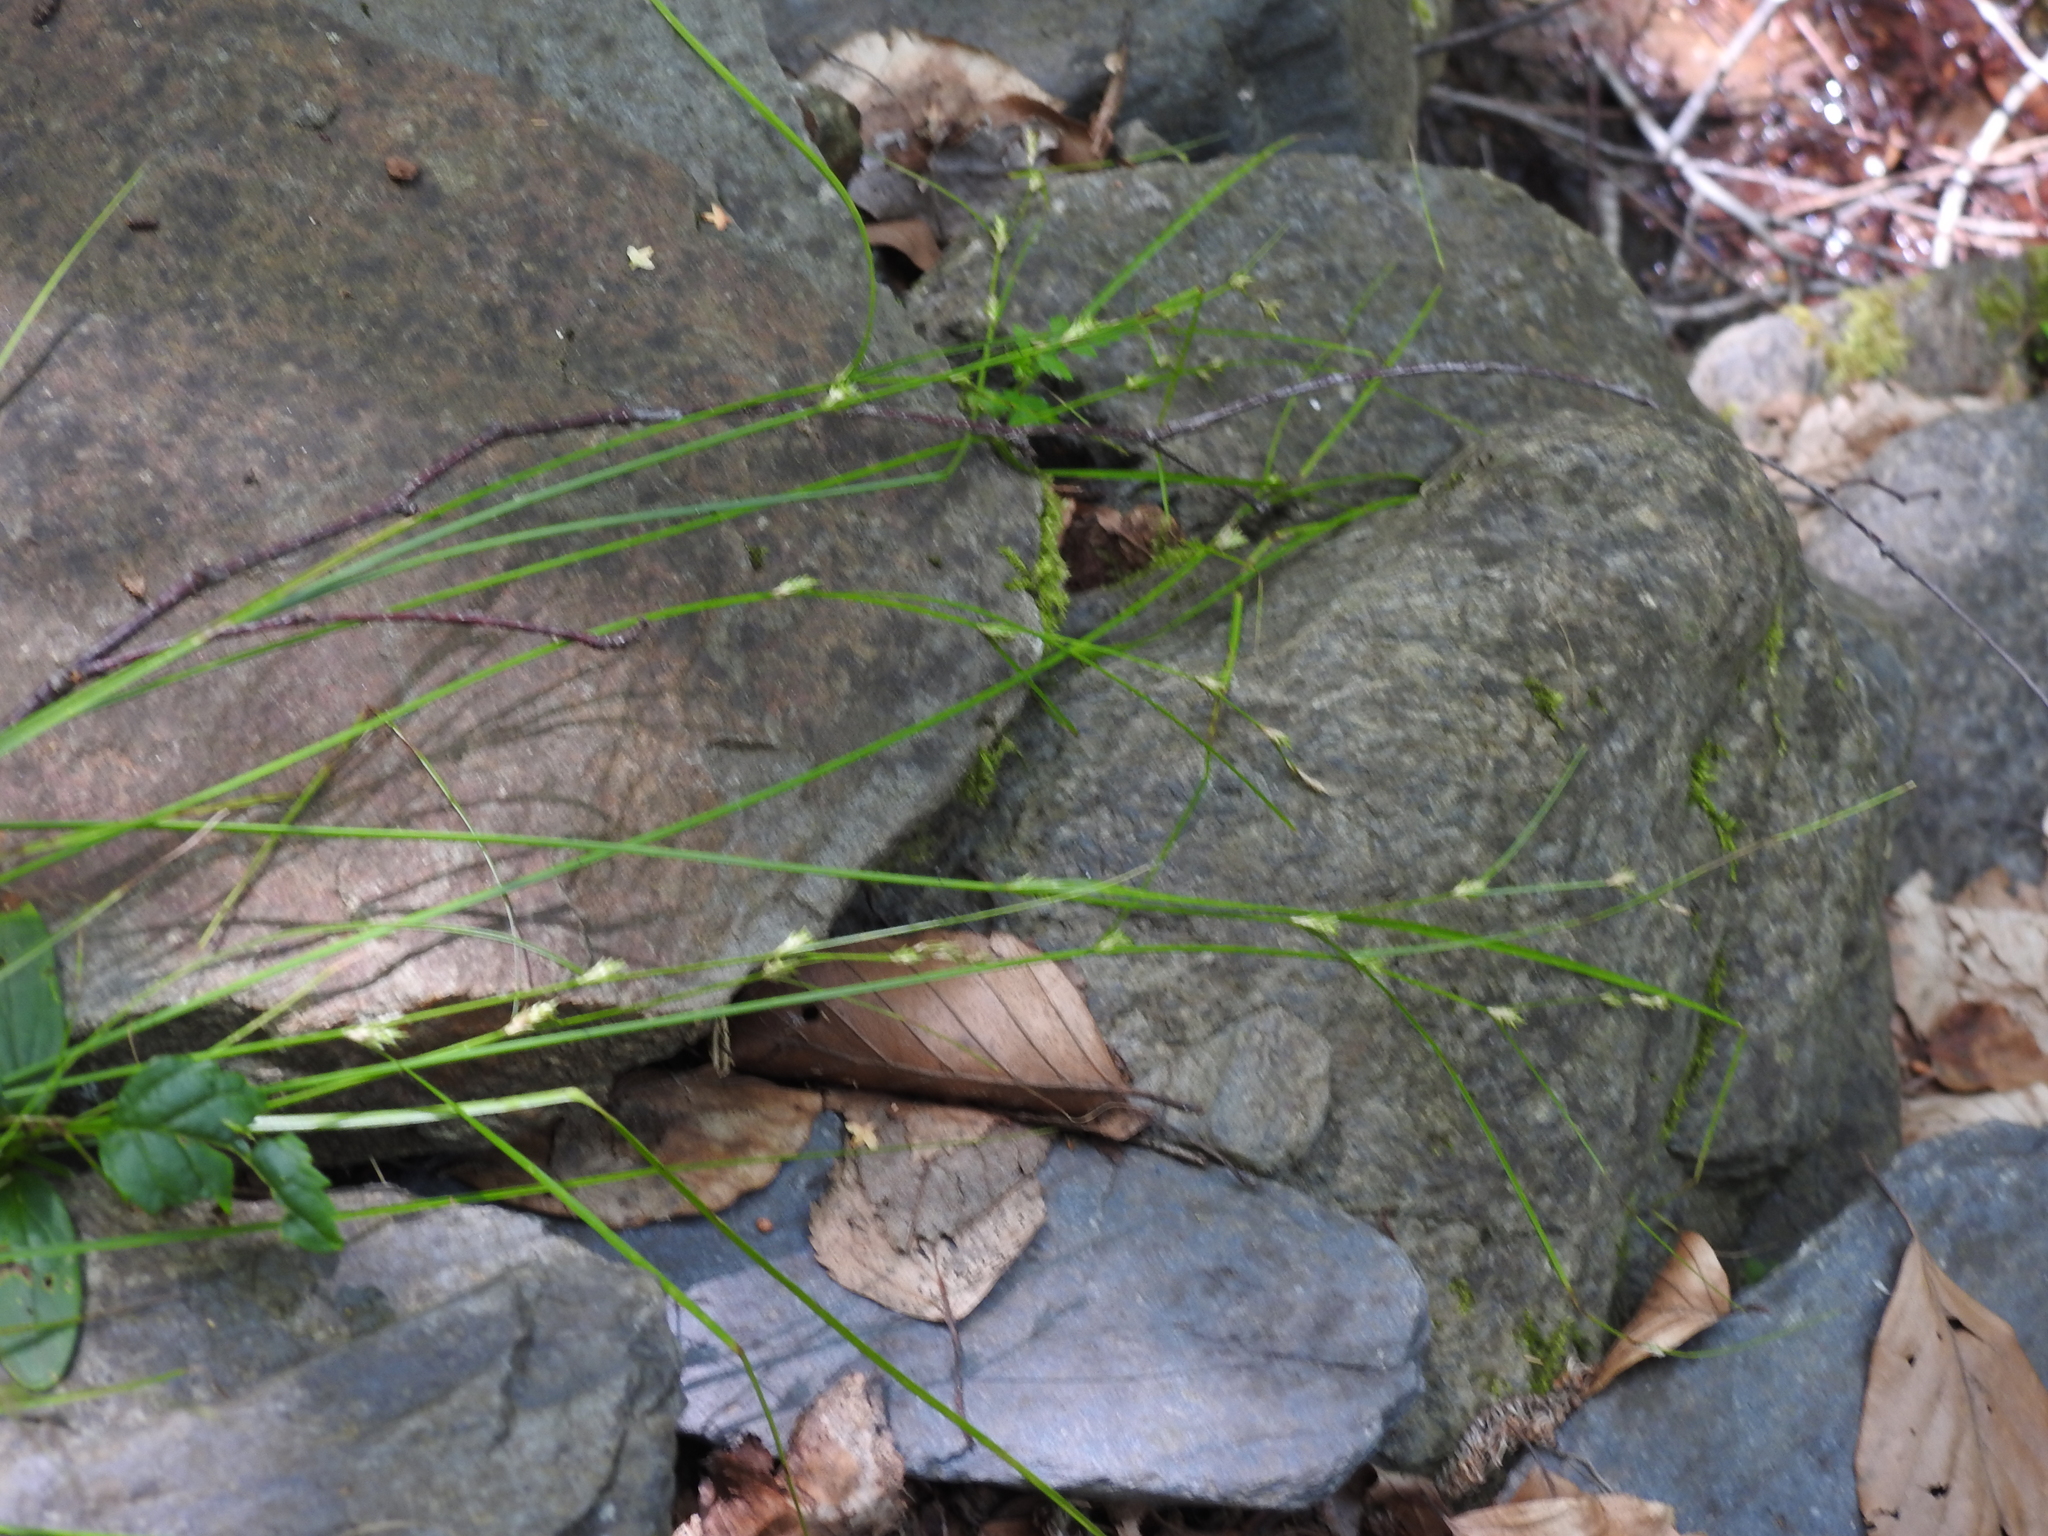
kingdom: Plantae
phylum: Tracheophyta
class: Liliopsida
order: Poales
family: Cyperaceae
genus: Carex
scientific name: Carex remota
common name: Remote sedge
